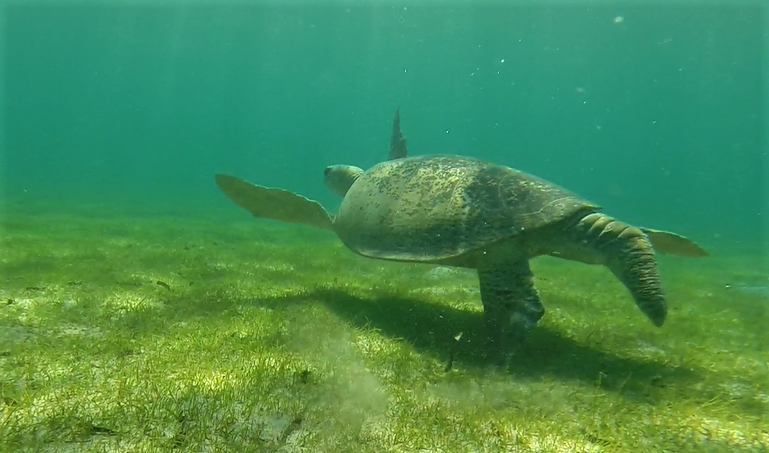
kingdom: Animalia
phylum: Chordata
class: Testudines
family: Cheloniidae
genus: Chelonia
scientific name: Chelonia mydas
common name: Green turtle
